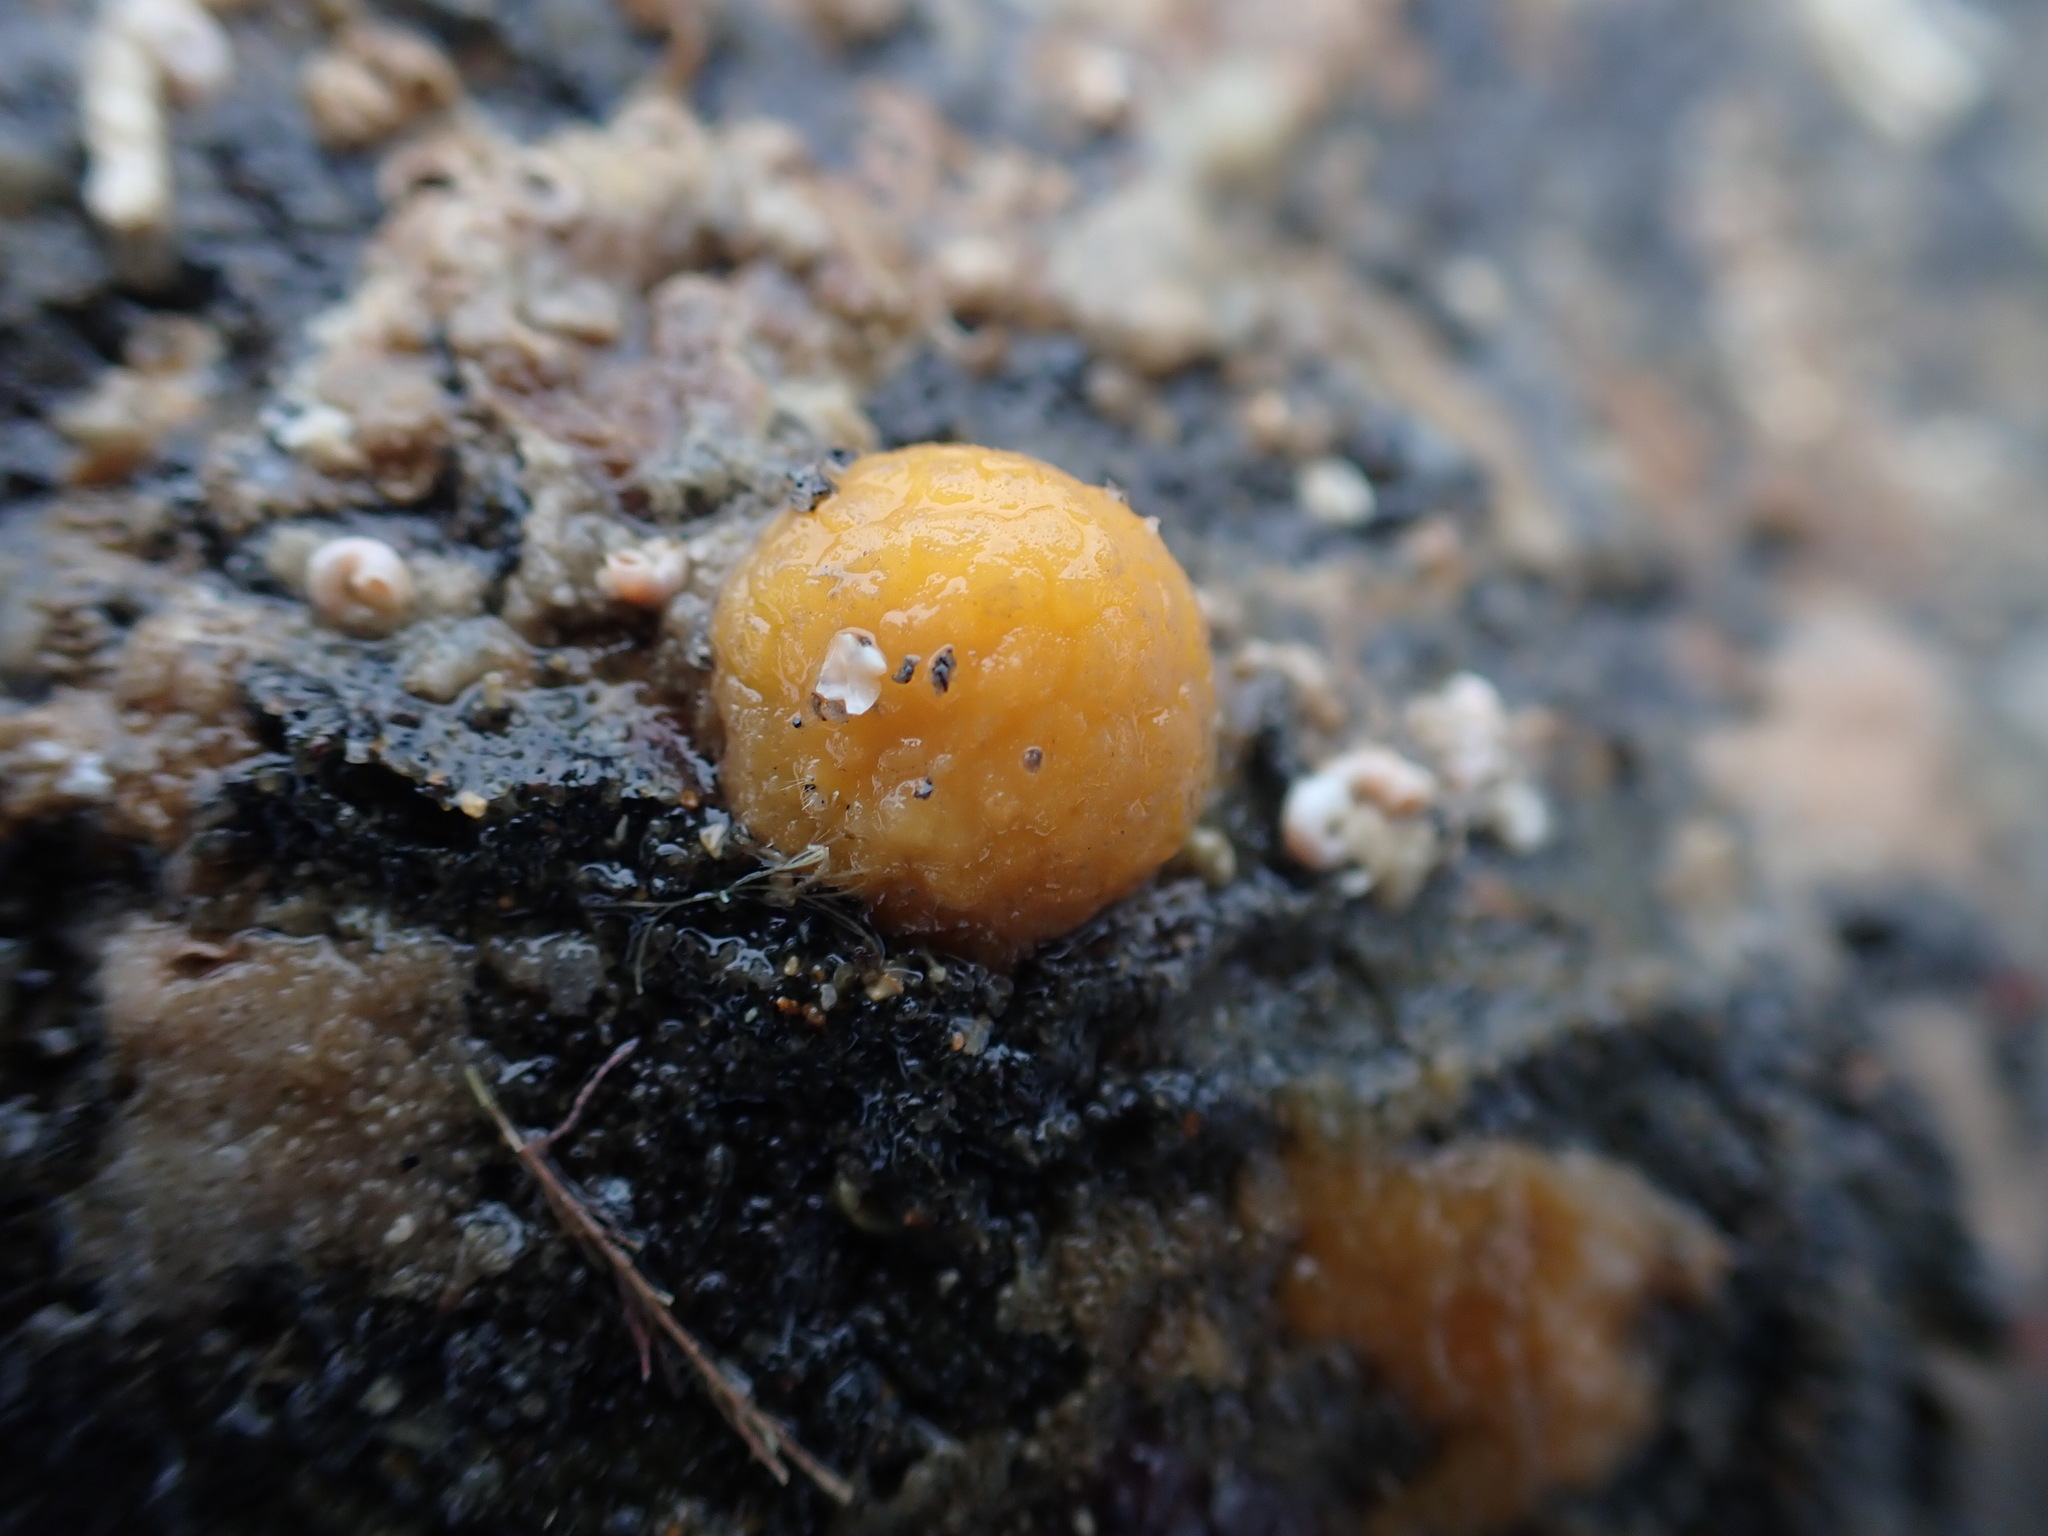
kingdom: Animalia
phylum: Porifera
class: Demospongiae
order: Tethyida
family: Tethyidae
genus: Tethya
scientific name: Tethya burtoni
